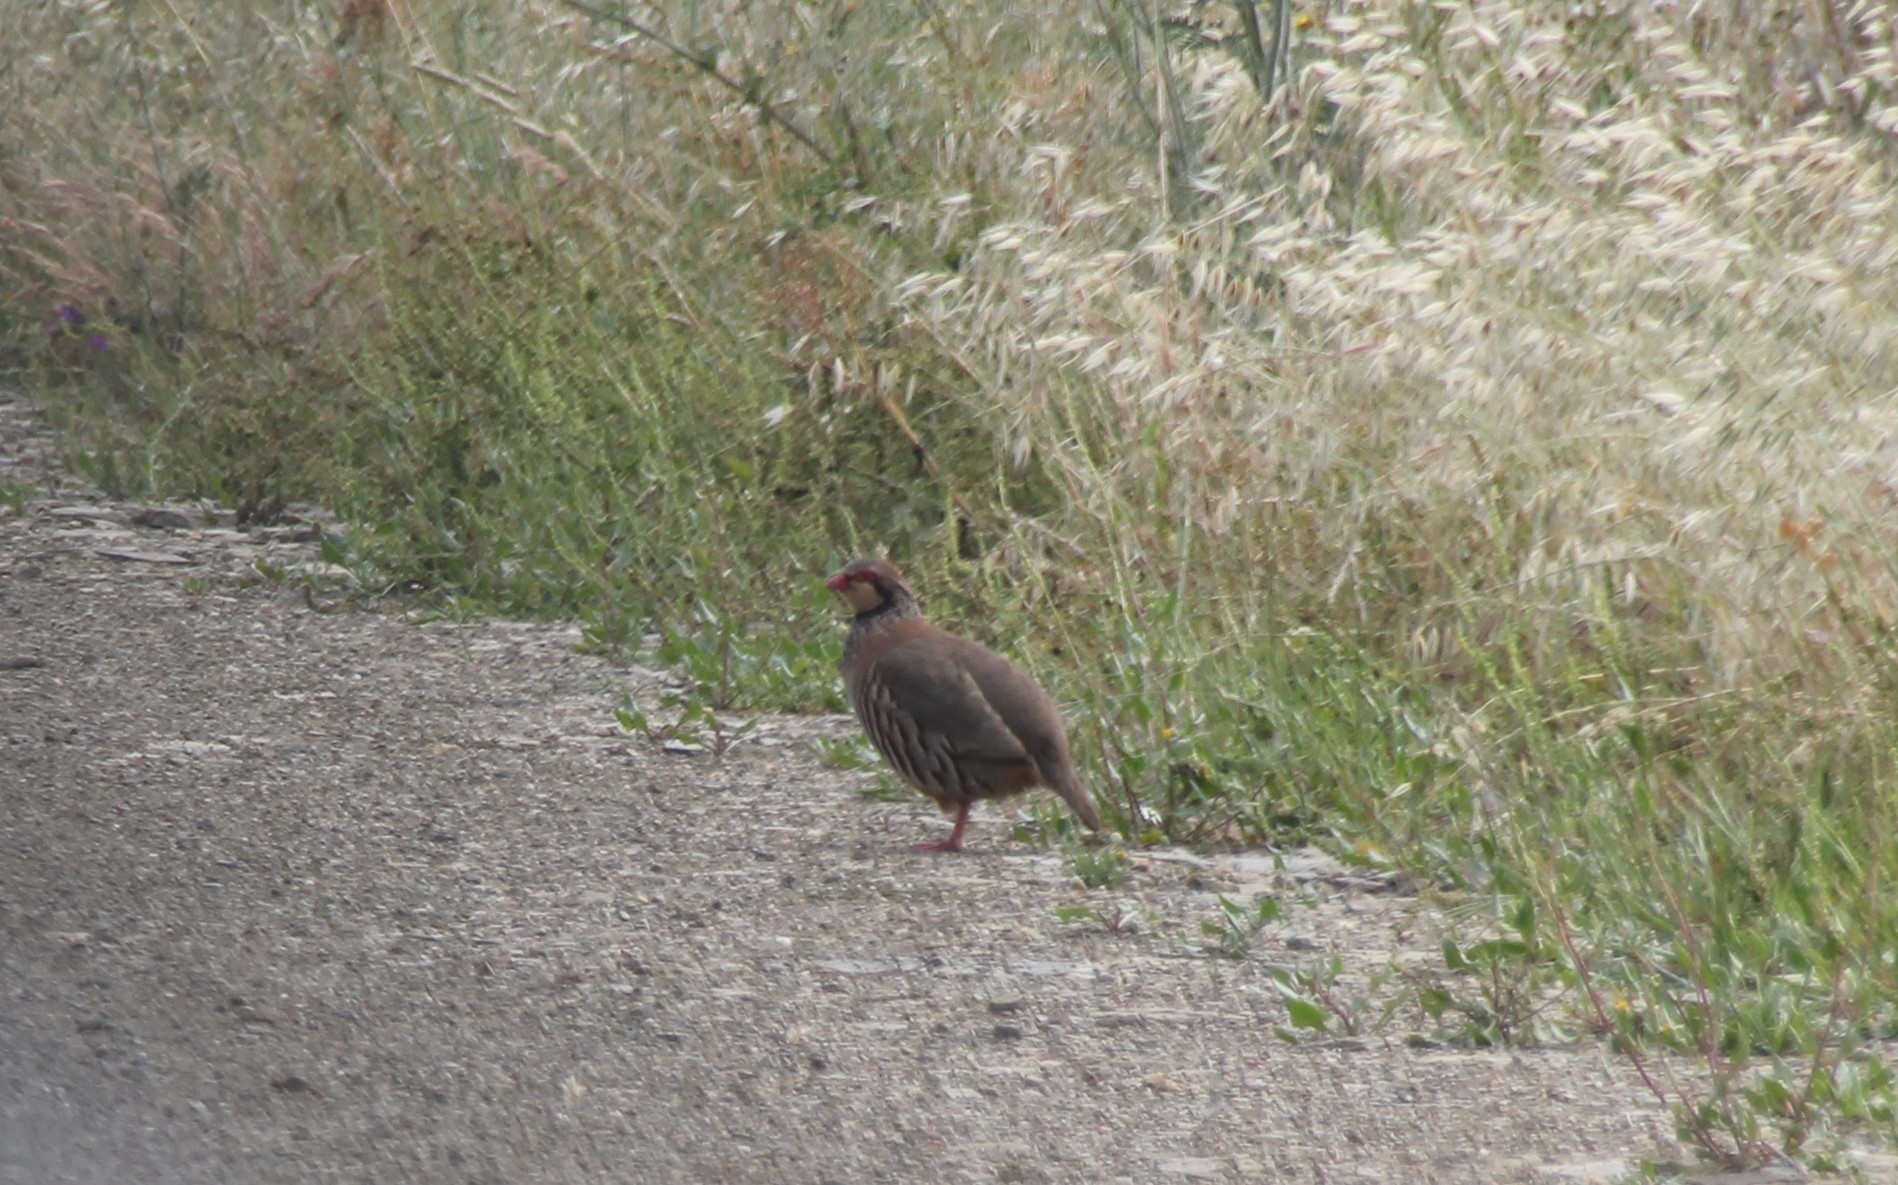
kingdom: Animalia
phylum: Chordata
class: Aves
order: Galliformes
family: Phasianidae
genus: Alectoris
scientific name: Alectoris rufa
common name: Red-legged partridge
